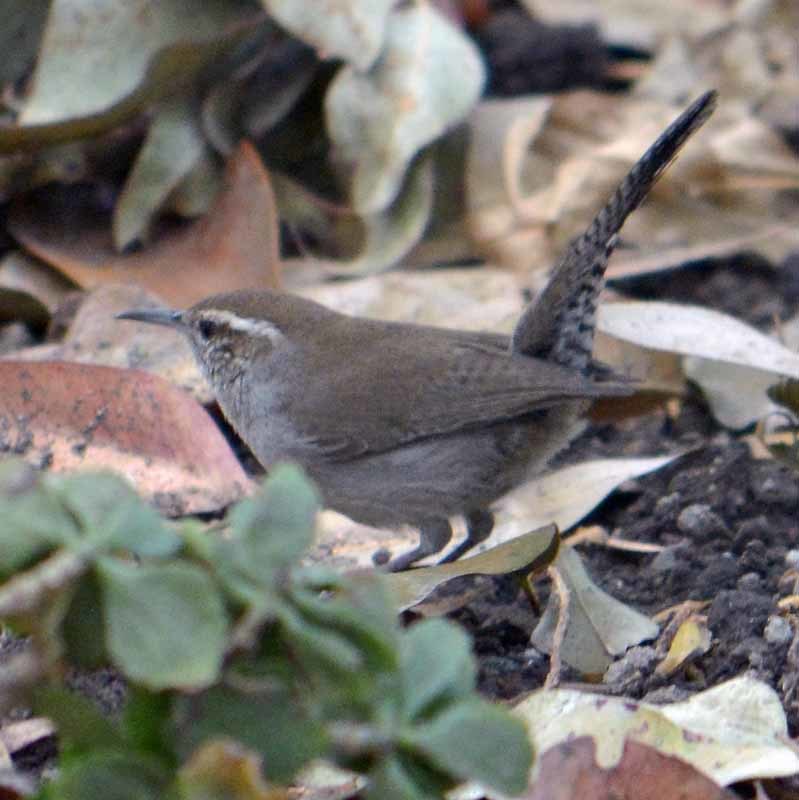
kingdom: Animalia
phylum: Chordata
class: Aves
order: Passeriformes
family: Troglodytidae
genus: Thryomanes
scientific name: Thryomanes bewickii
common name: Bewick's wren
